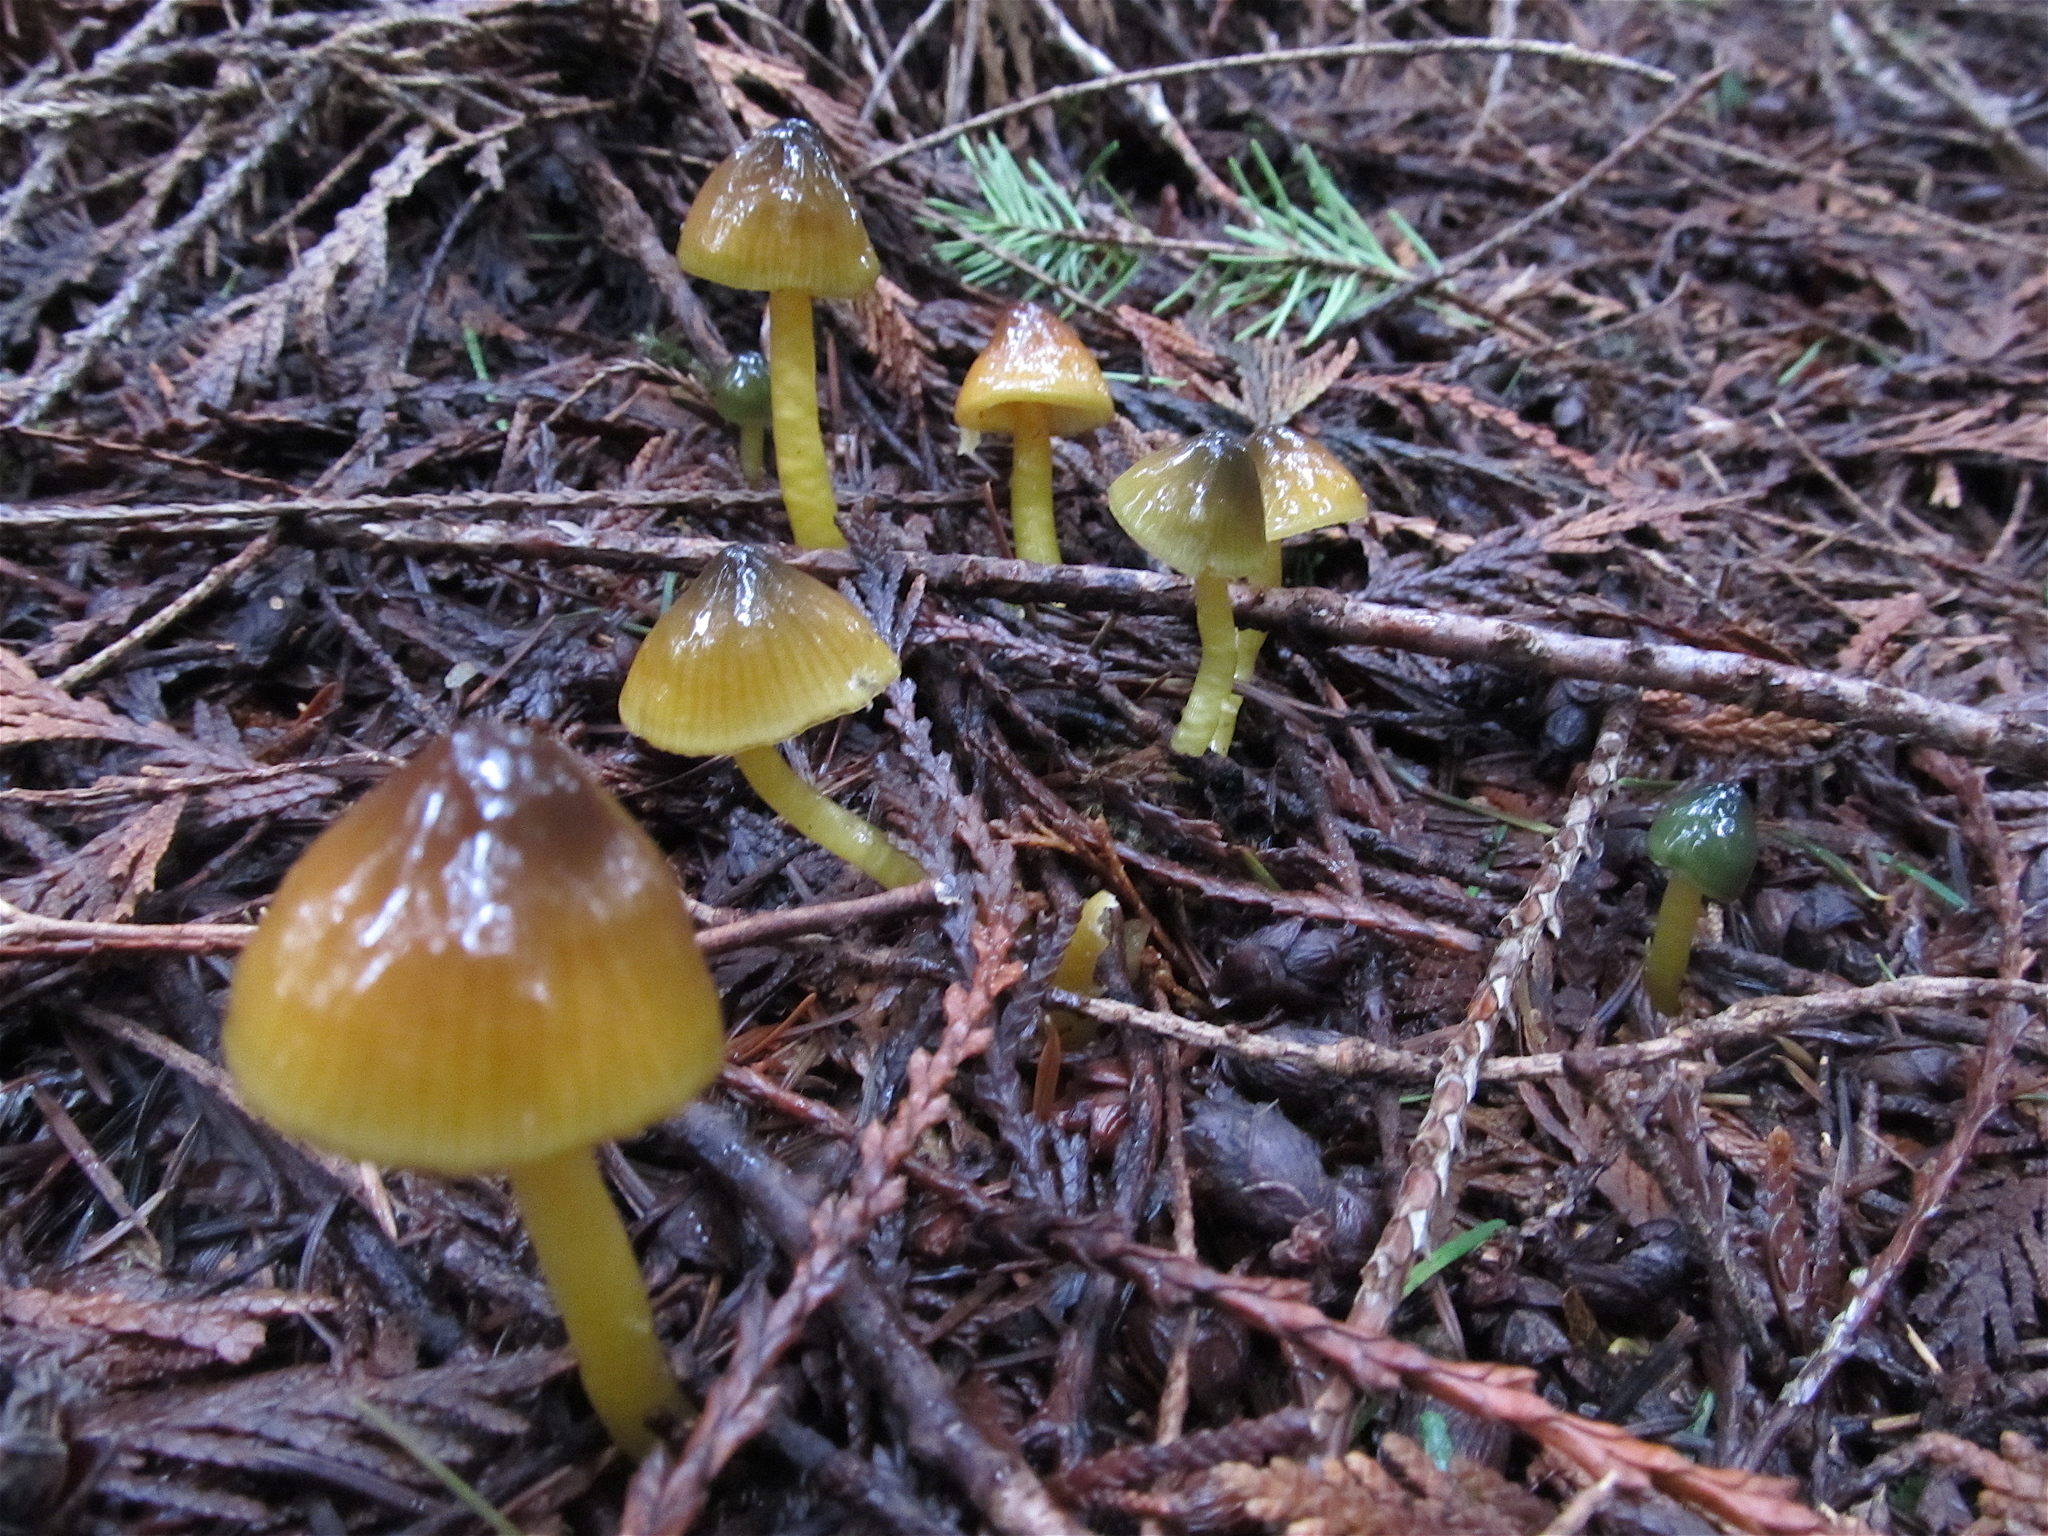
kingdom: Fungi
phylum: Basidiomycota
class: Agaricomycetes
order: Agaricales
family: Hygrophoraceae
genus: Gliophorus
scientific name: Gliophorus psittacinus
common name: Parrot wax-cap
